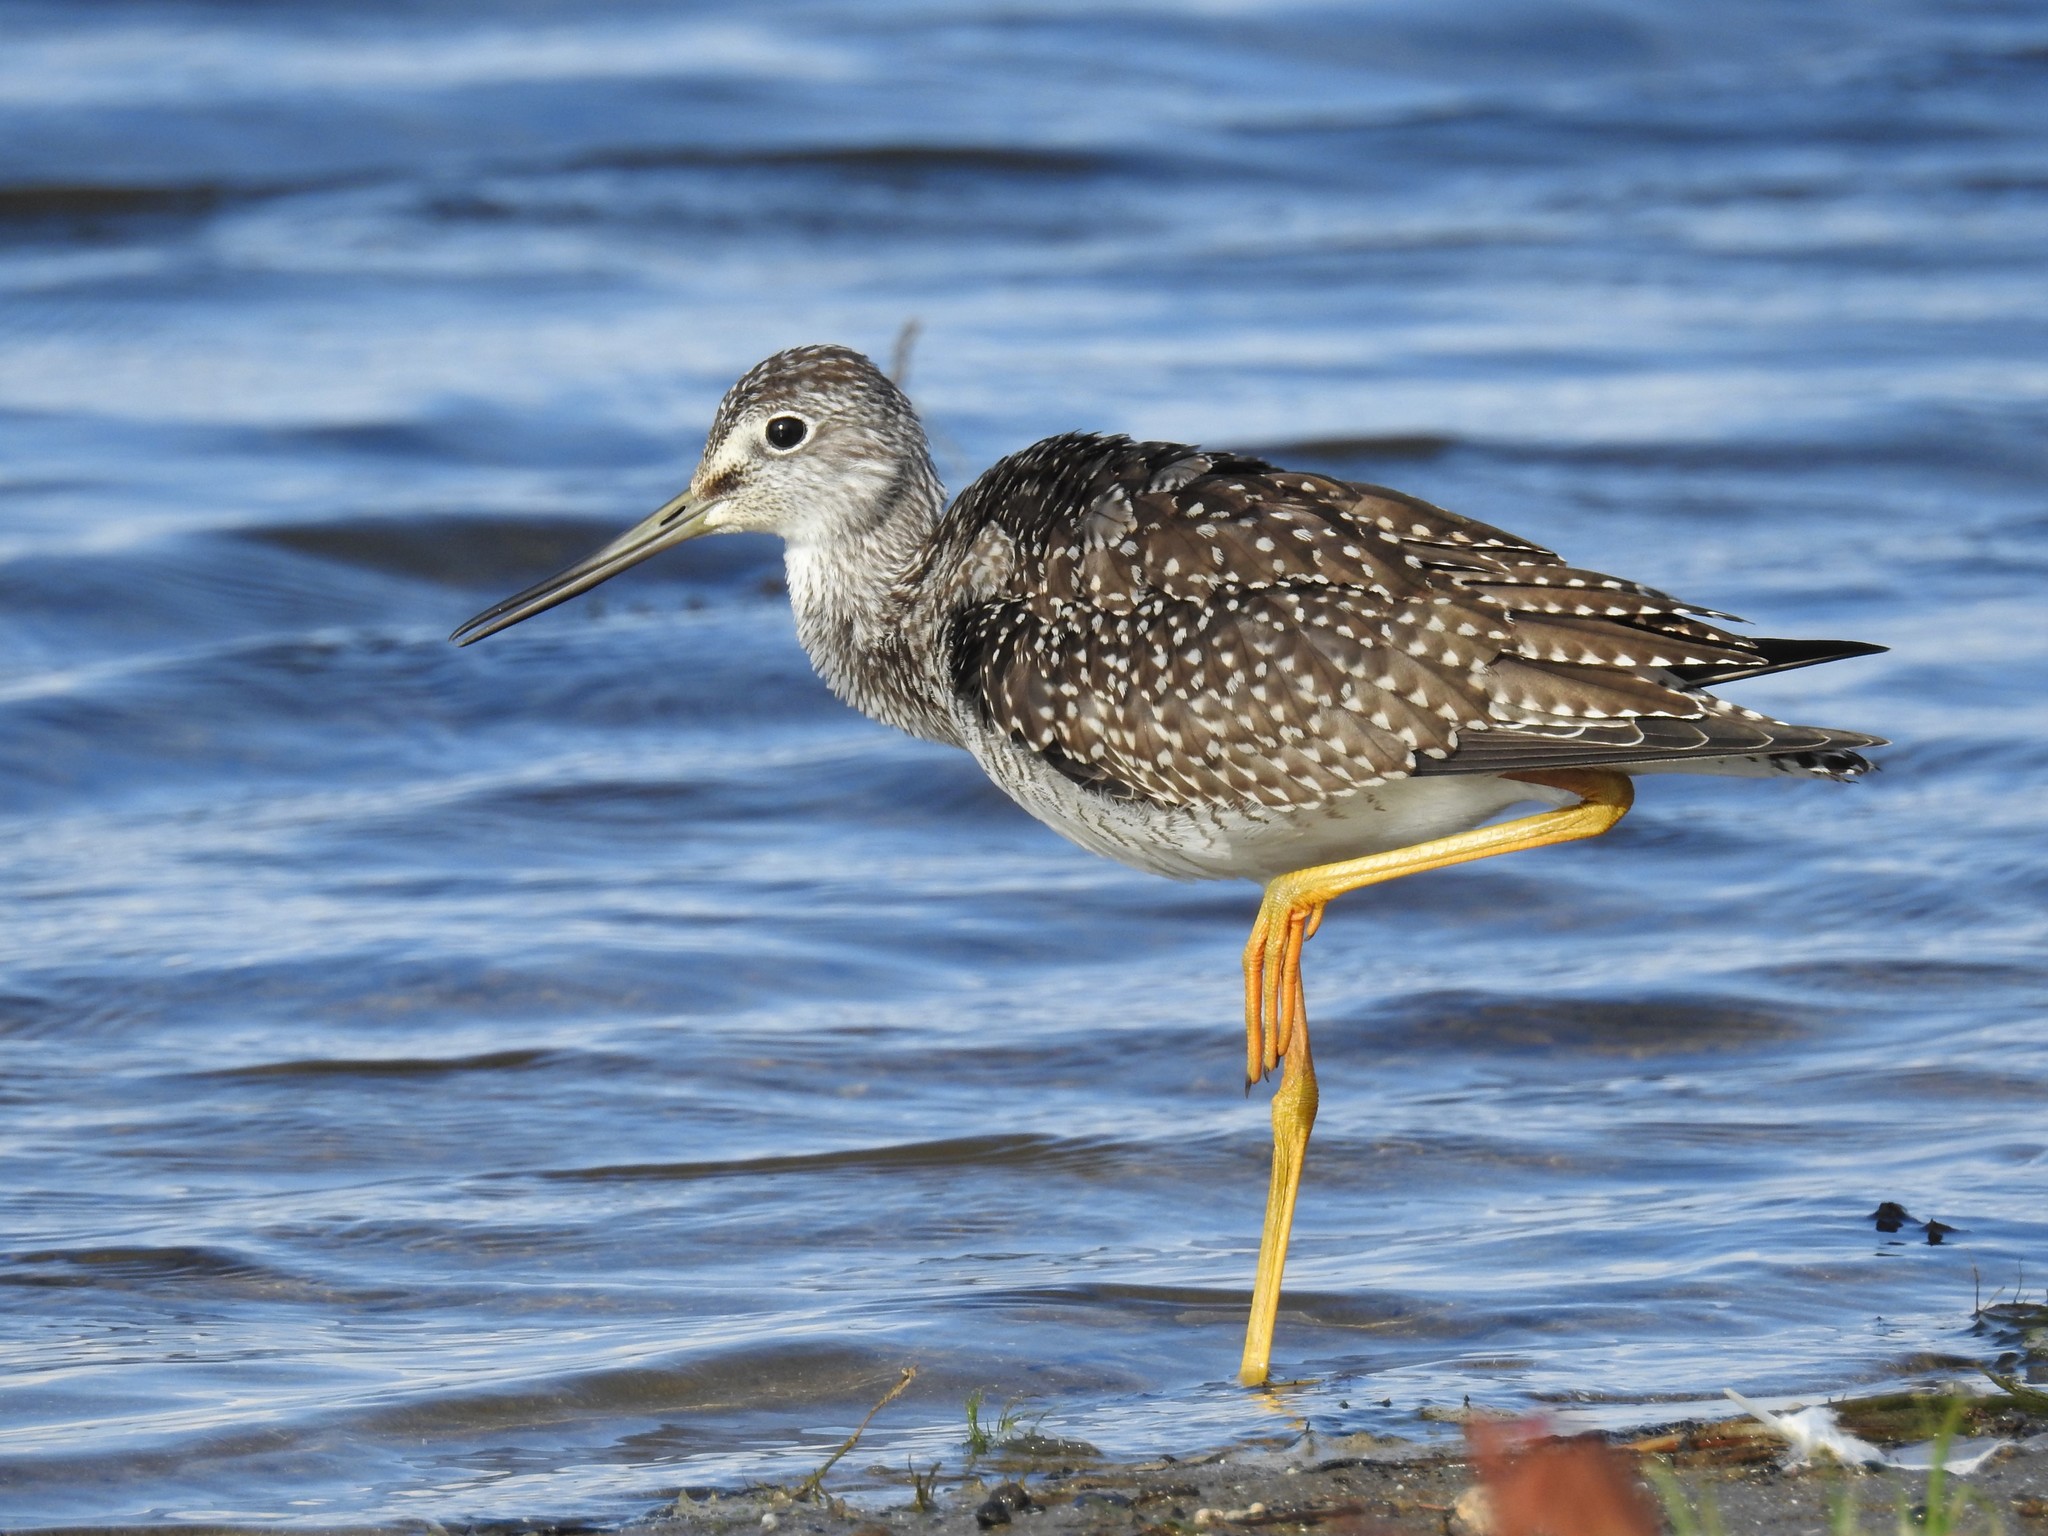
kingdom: Animalia
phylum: Chordata
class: Aves
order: Charadriiformes
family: Scolopacidae
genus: Tringa
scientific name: Tringa melanoleuca
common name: Greater yellowlegs
